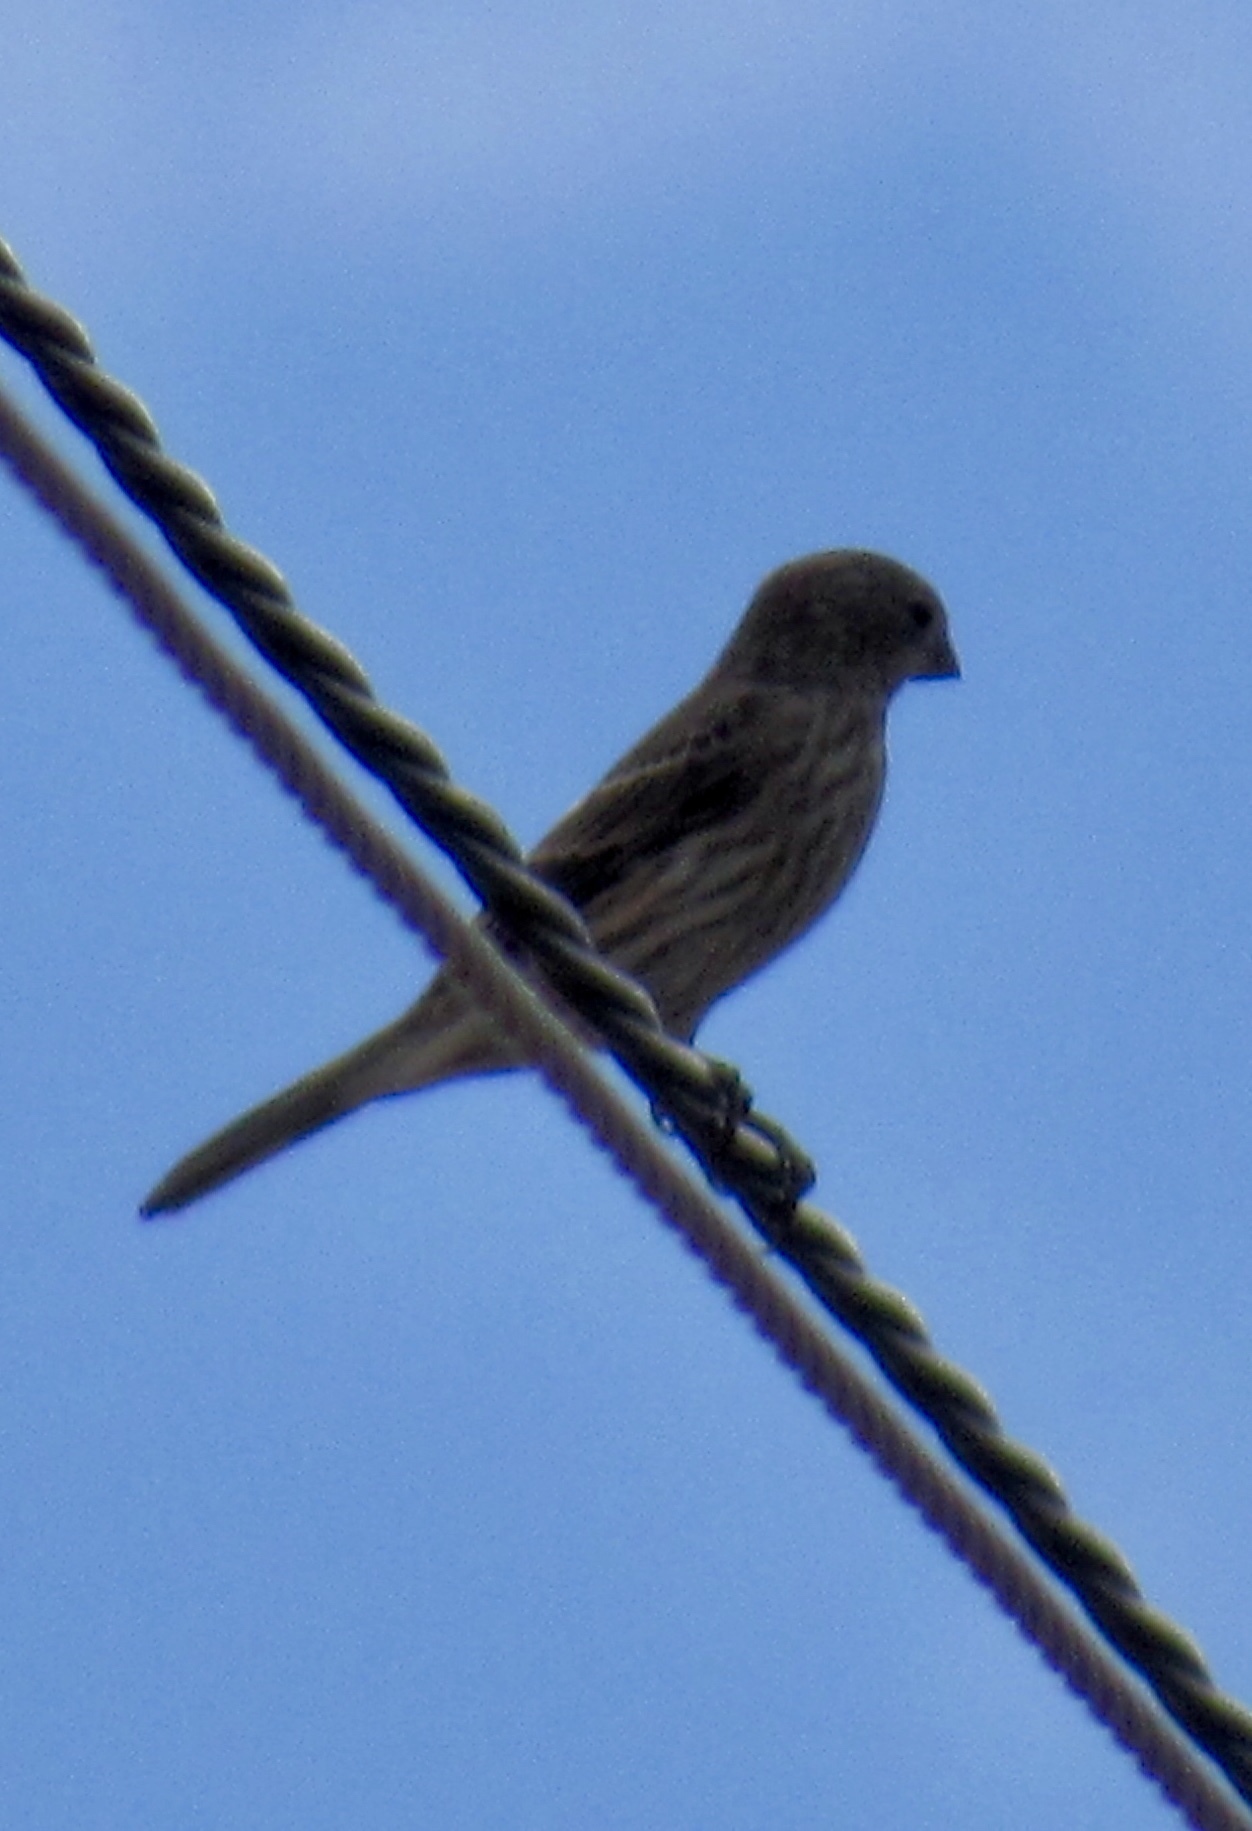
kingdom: Animalia
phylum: Chordata
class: Aves
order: Passeriformes
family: Fringillidae
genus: Haemorhous
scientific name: Haemorhous mexicanus
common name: House finch
